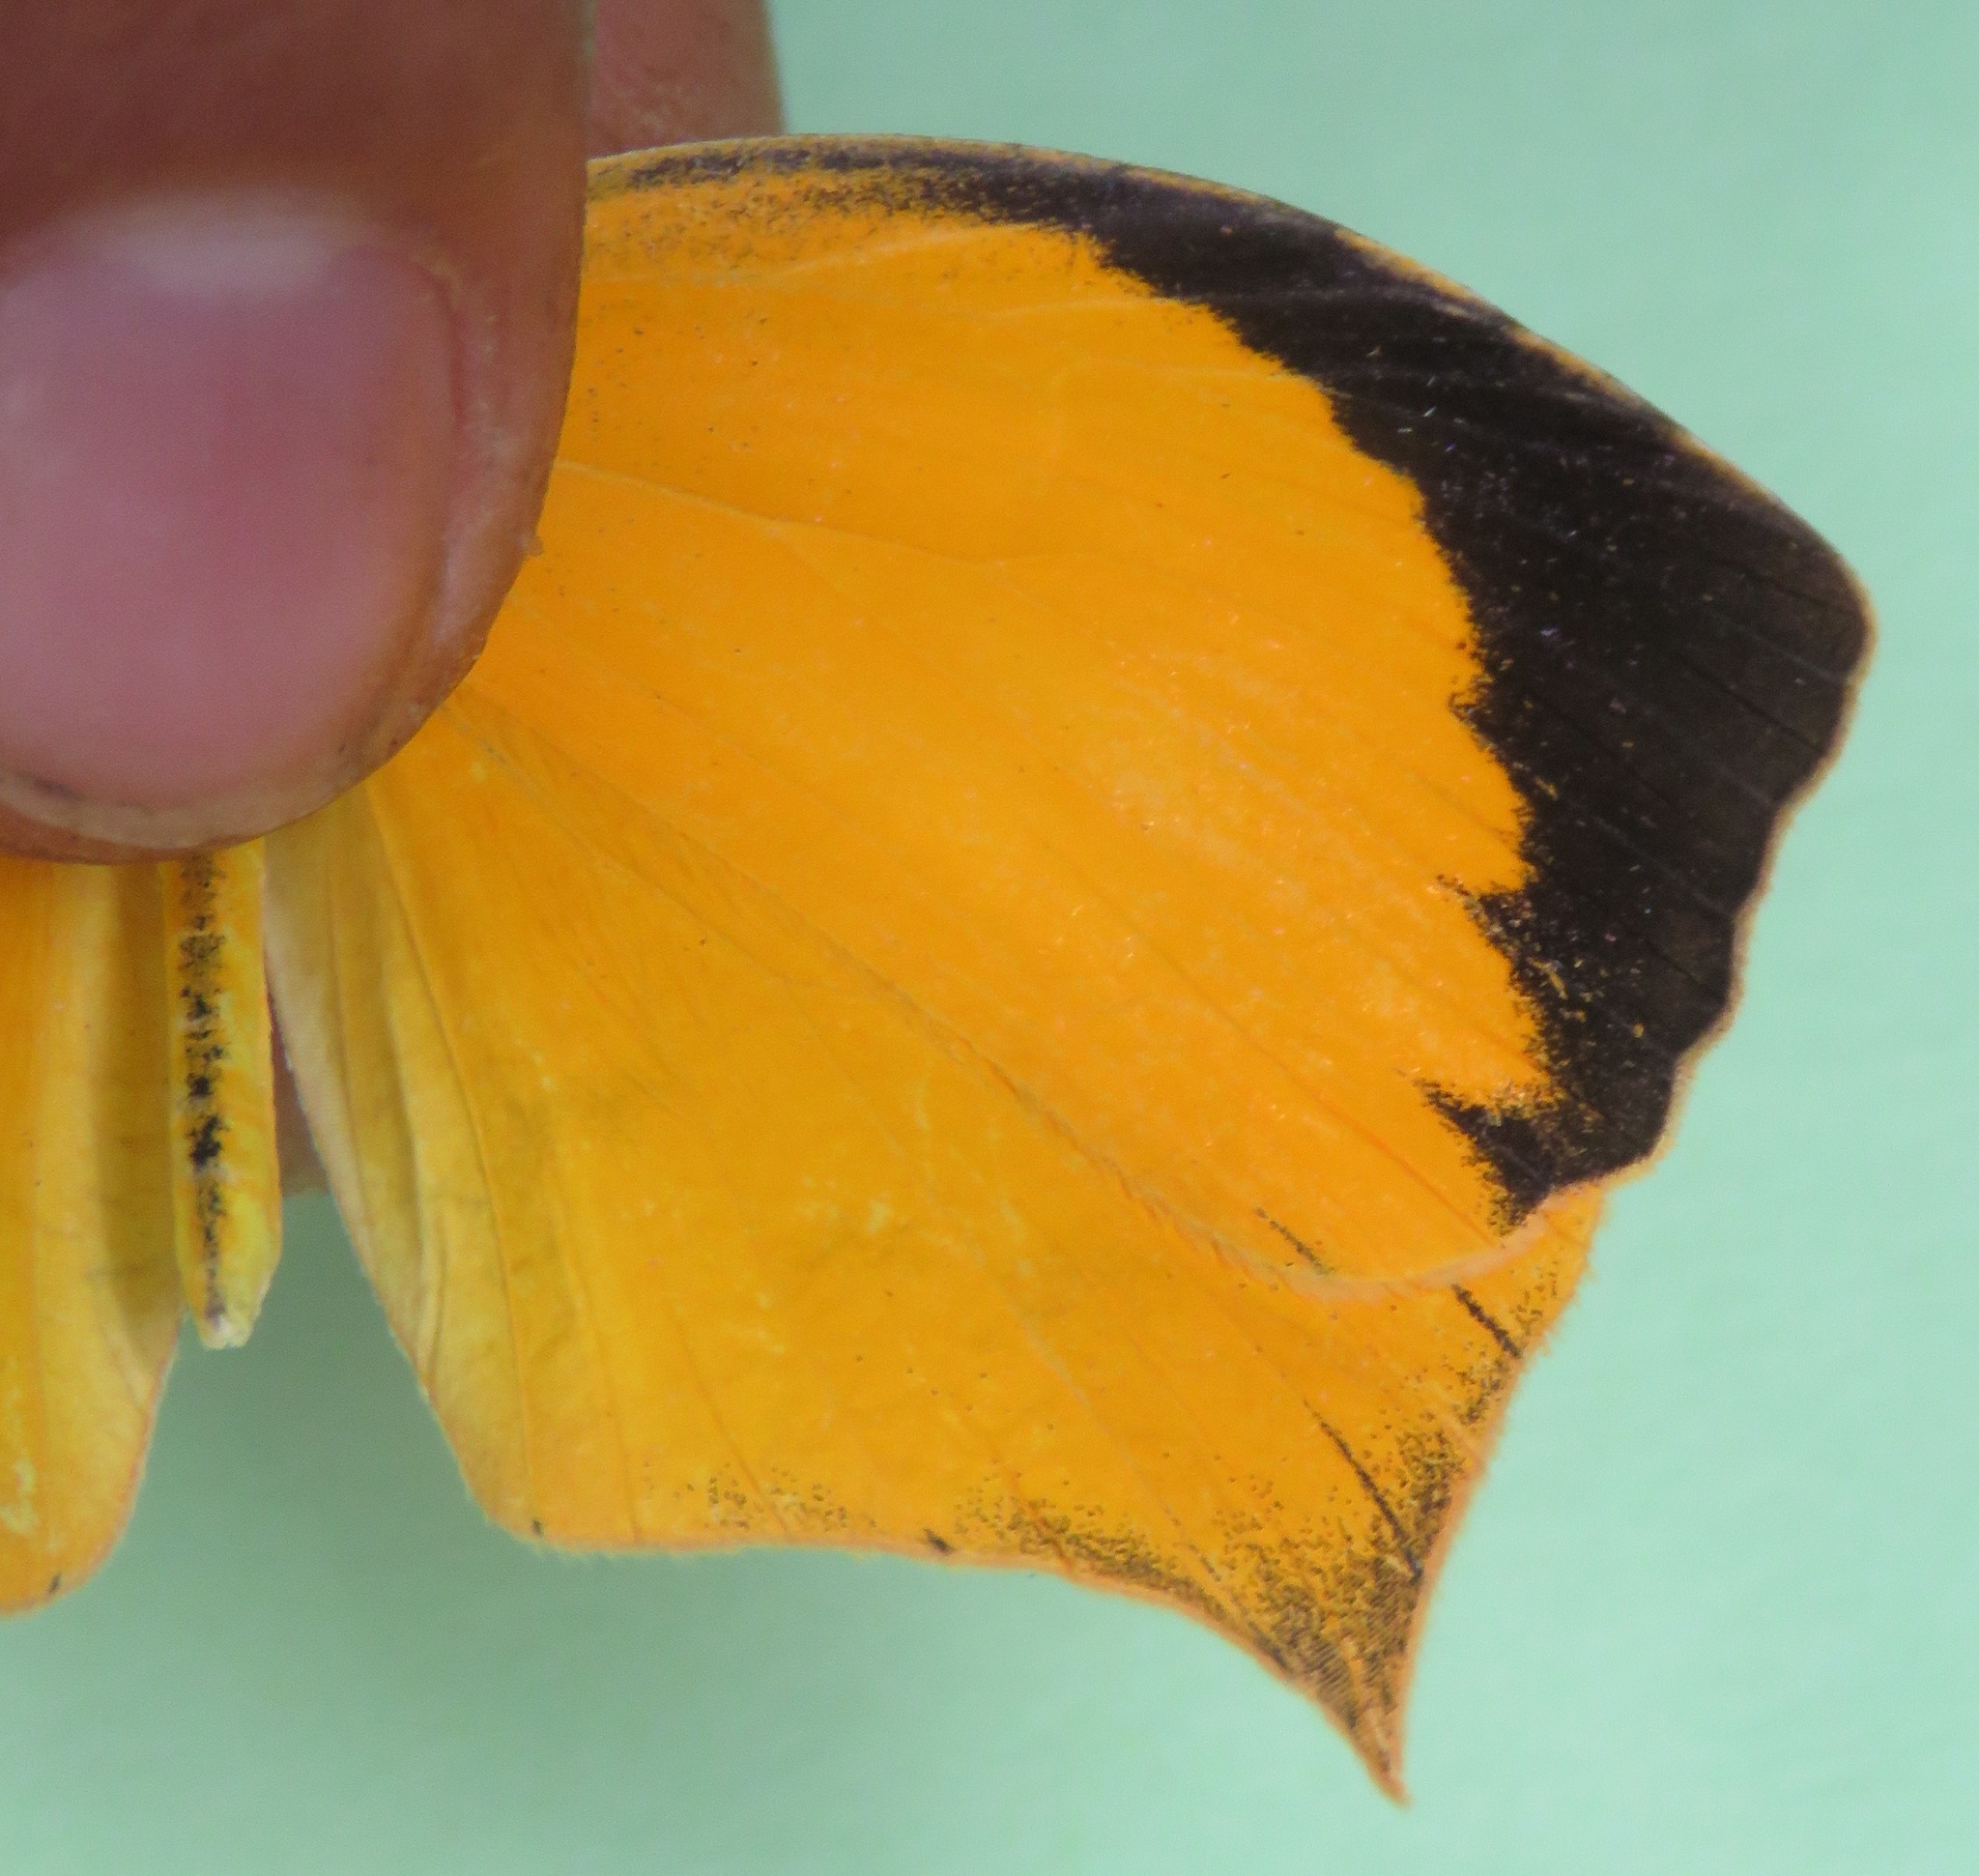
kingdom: Animalia
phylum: Arthropoda
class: Insecta
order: Lepidoptera
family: Pieridae
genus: Pyrisitia
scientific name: Pyrisitia proterpia
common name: Tailed orange
